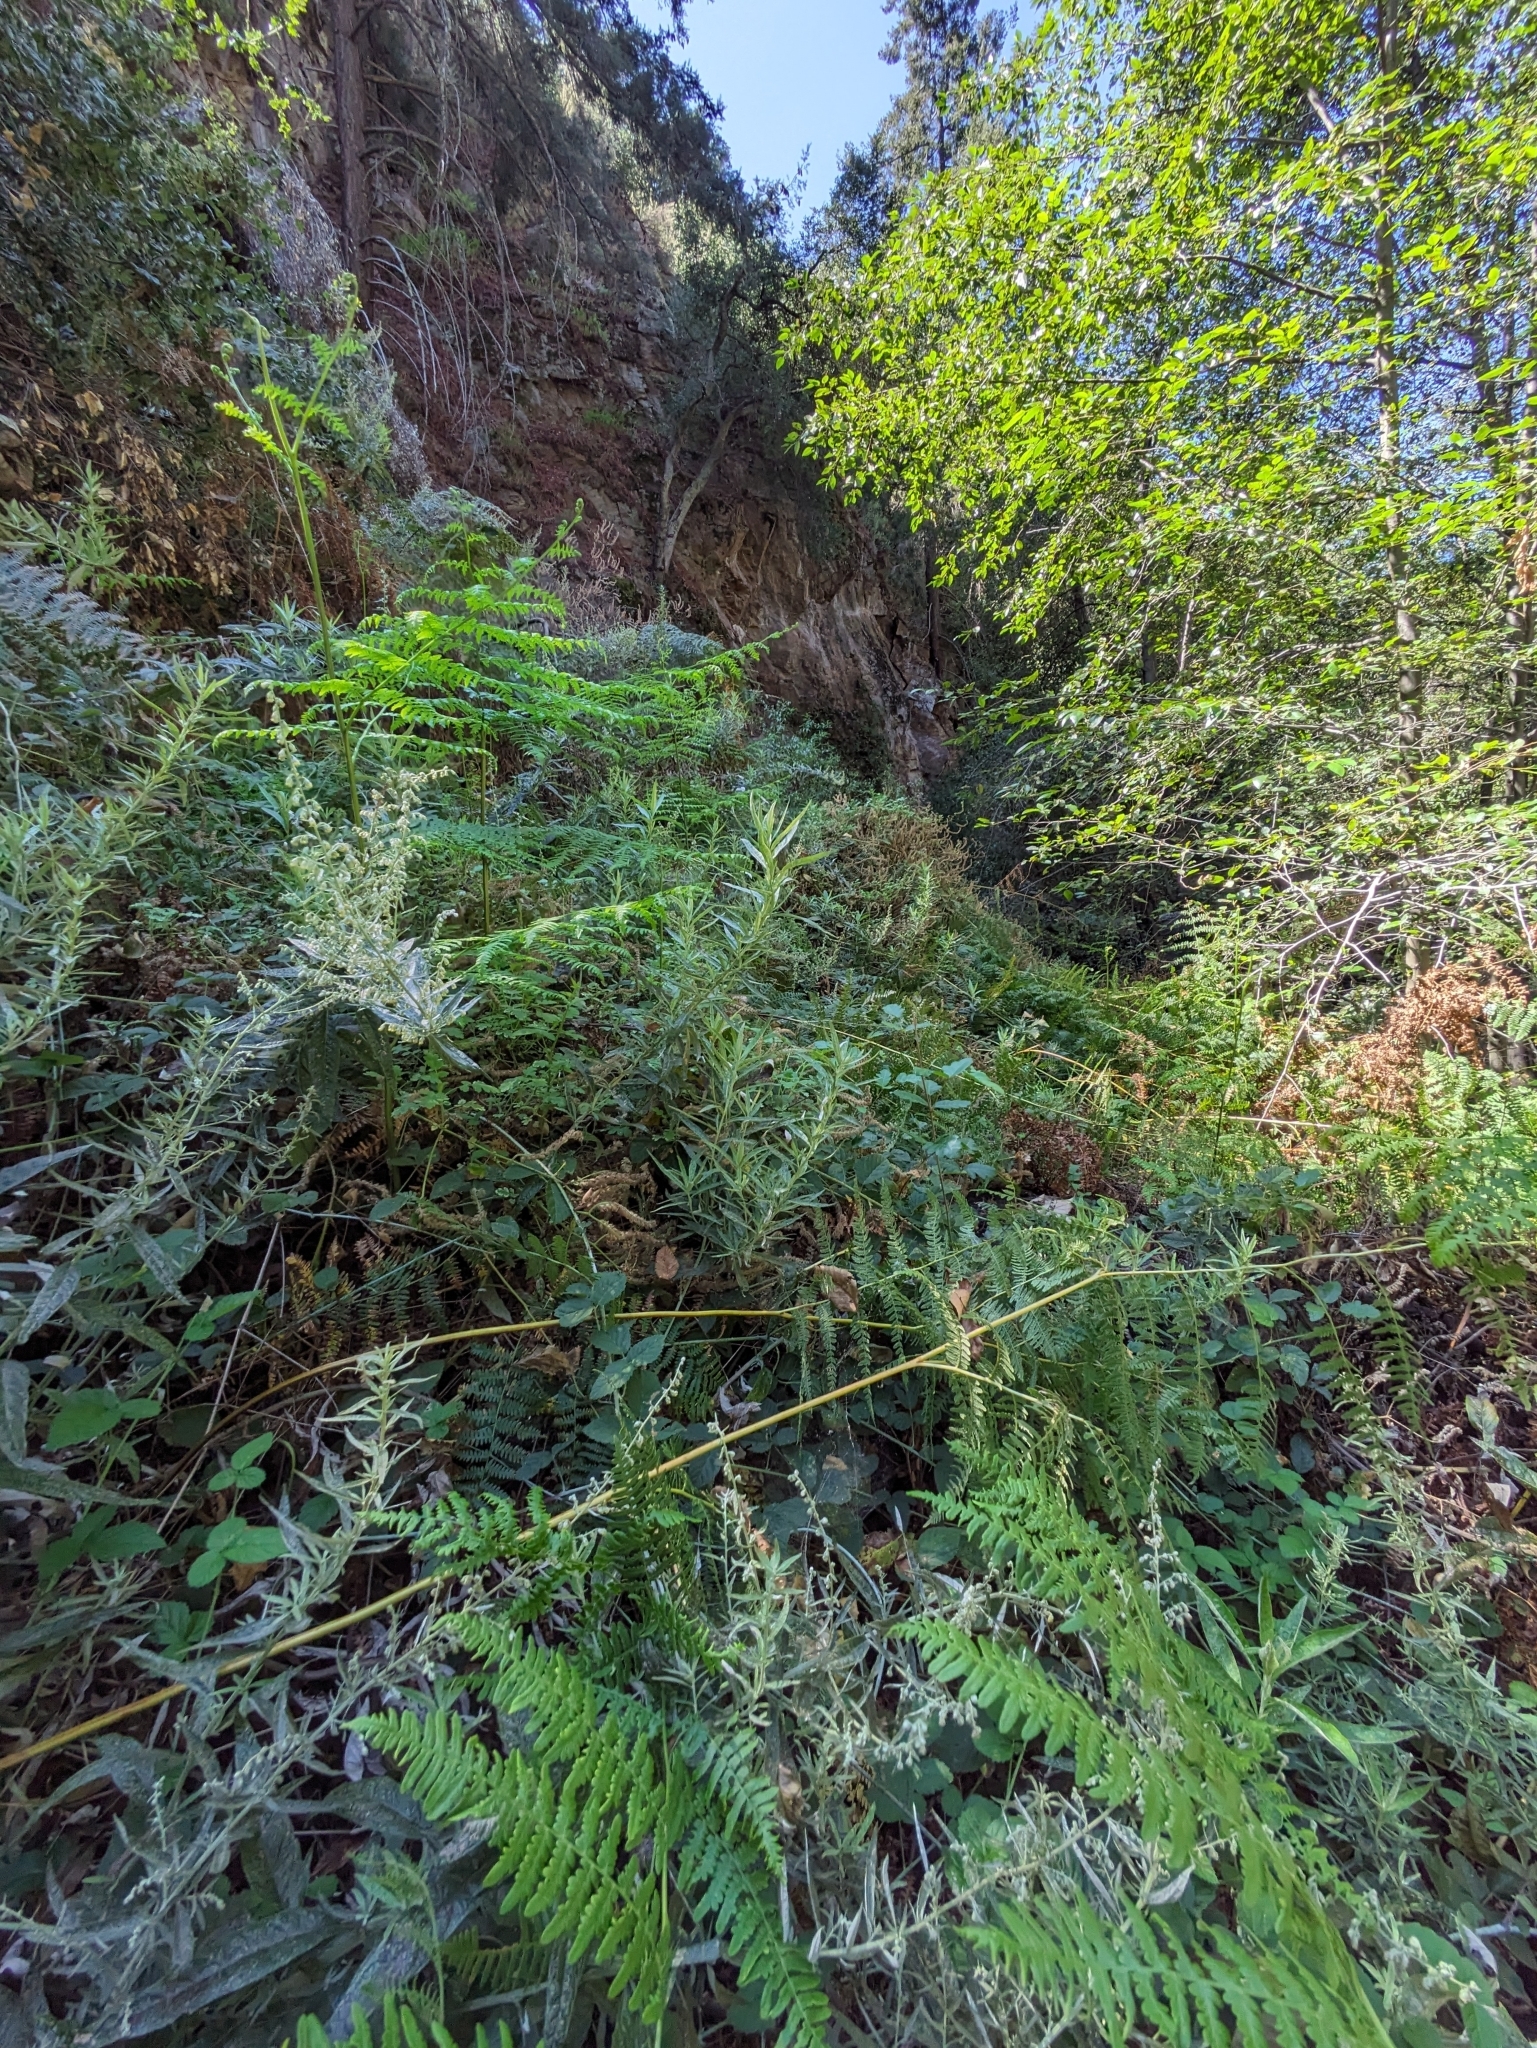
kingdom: Plantae
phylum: Tracheophyta
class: Polypodiopsida
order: Polypodiales
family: Dennstaedtiaceae
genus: Pteridium
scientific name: Pteridium aquilinum
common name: Bracken
